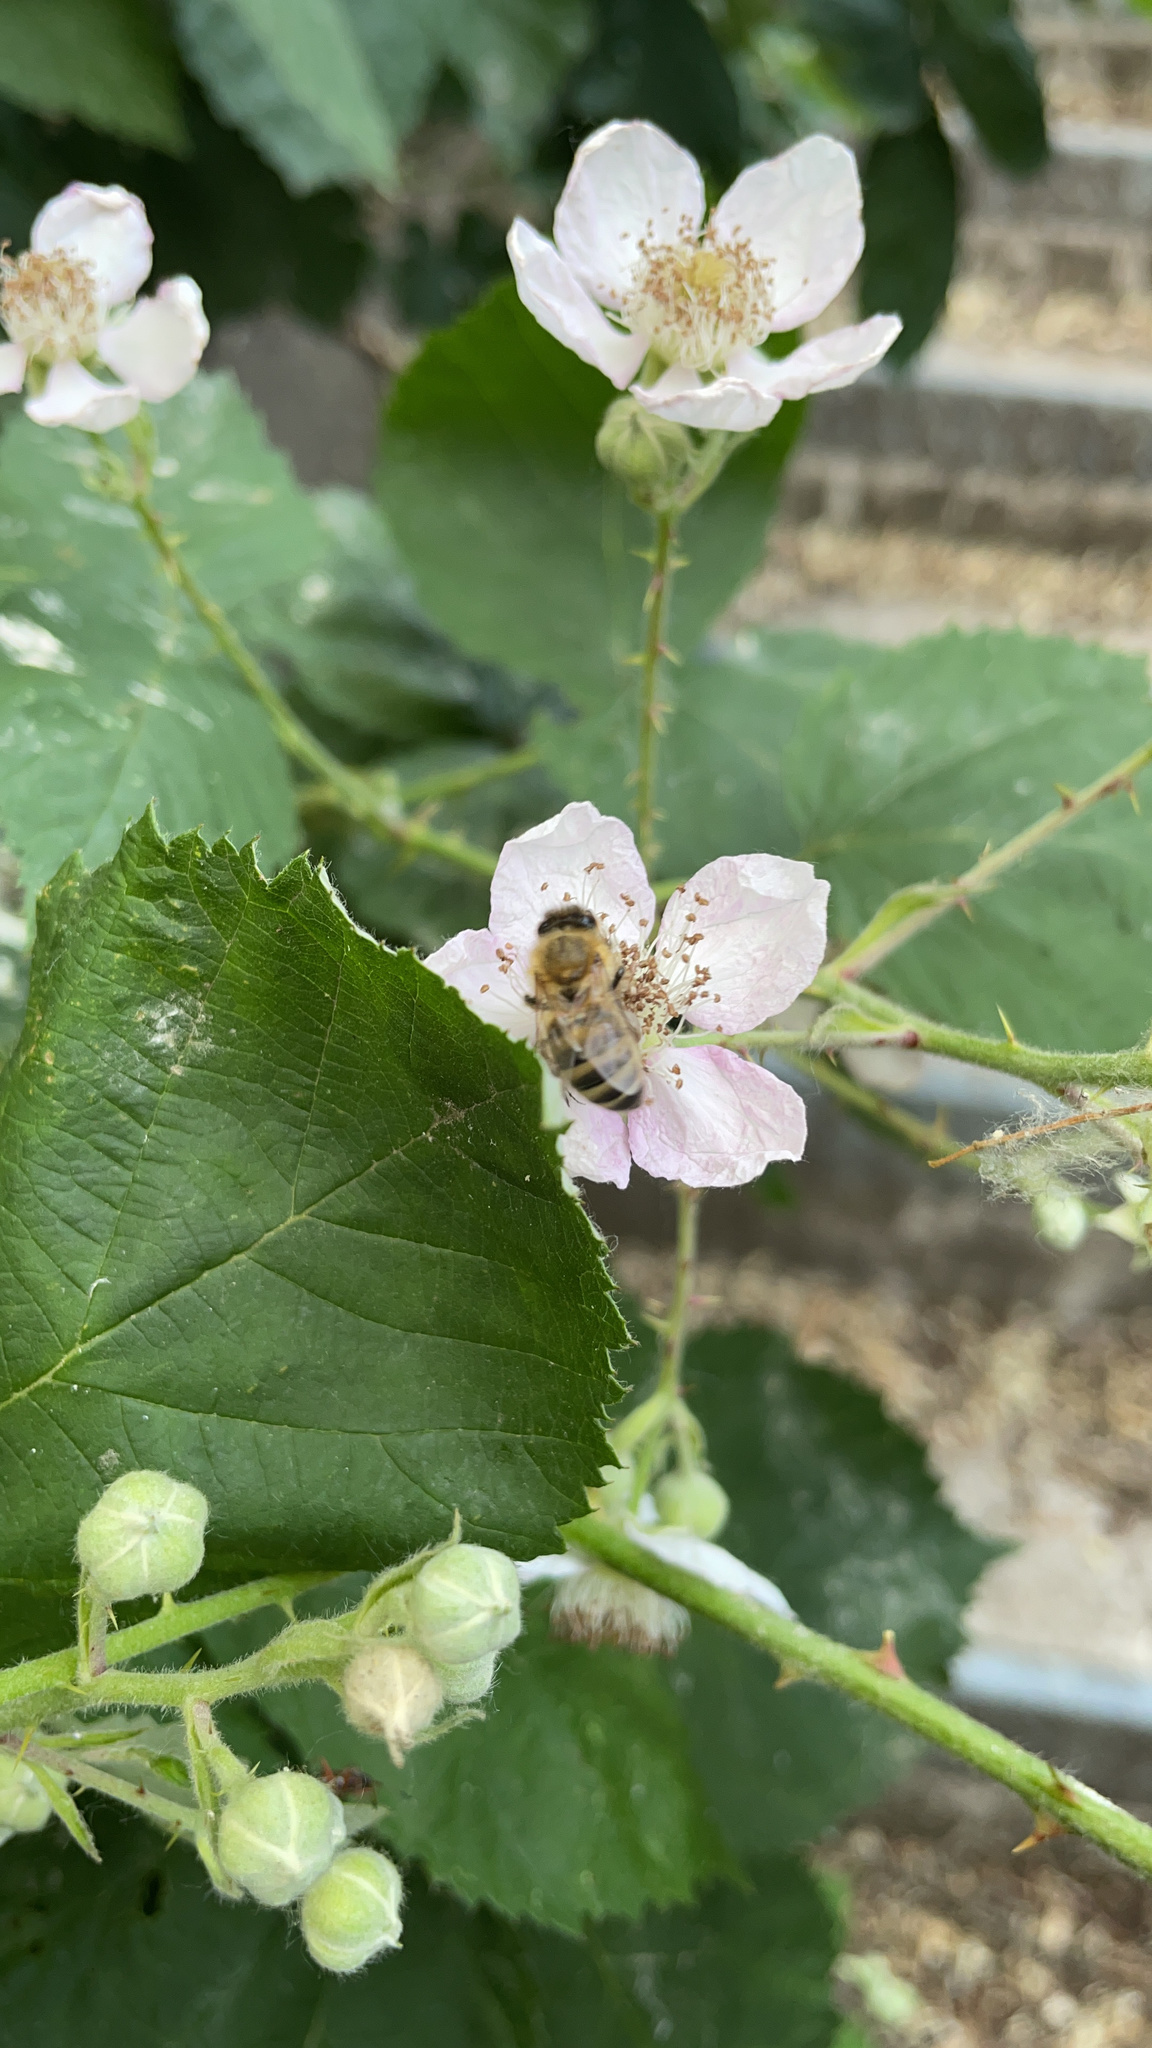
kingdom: Animalia
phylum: Arthropoda
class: Insecta
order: Hymenoptera
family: Apidae
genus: Apis
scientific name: Apis mellifera
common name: Honey bee
